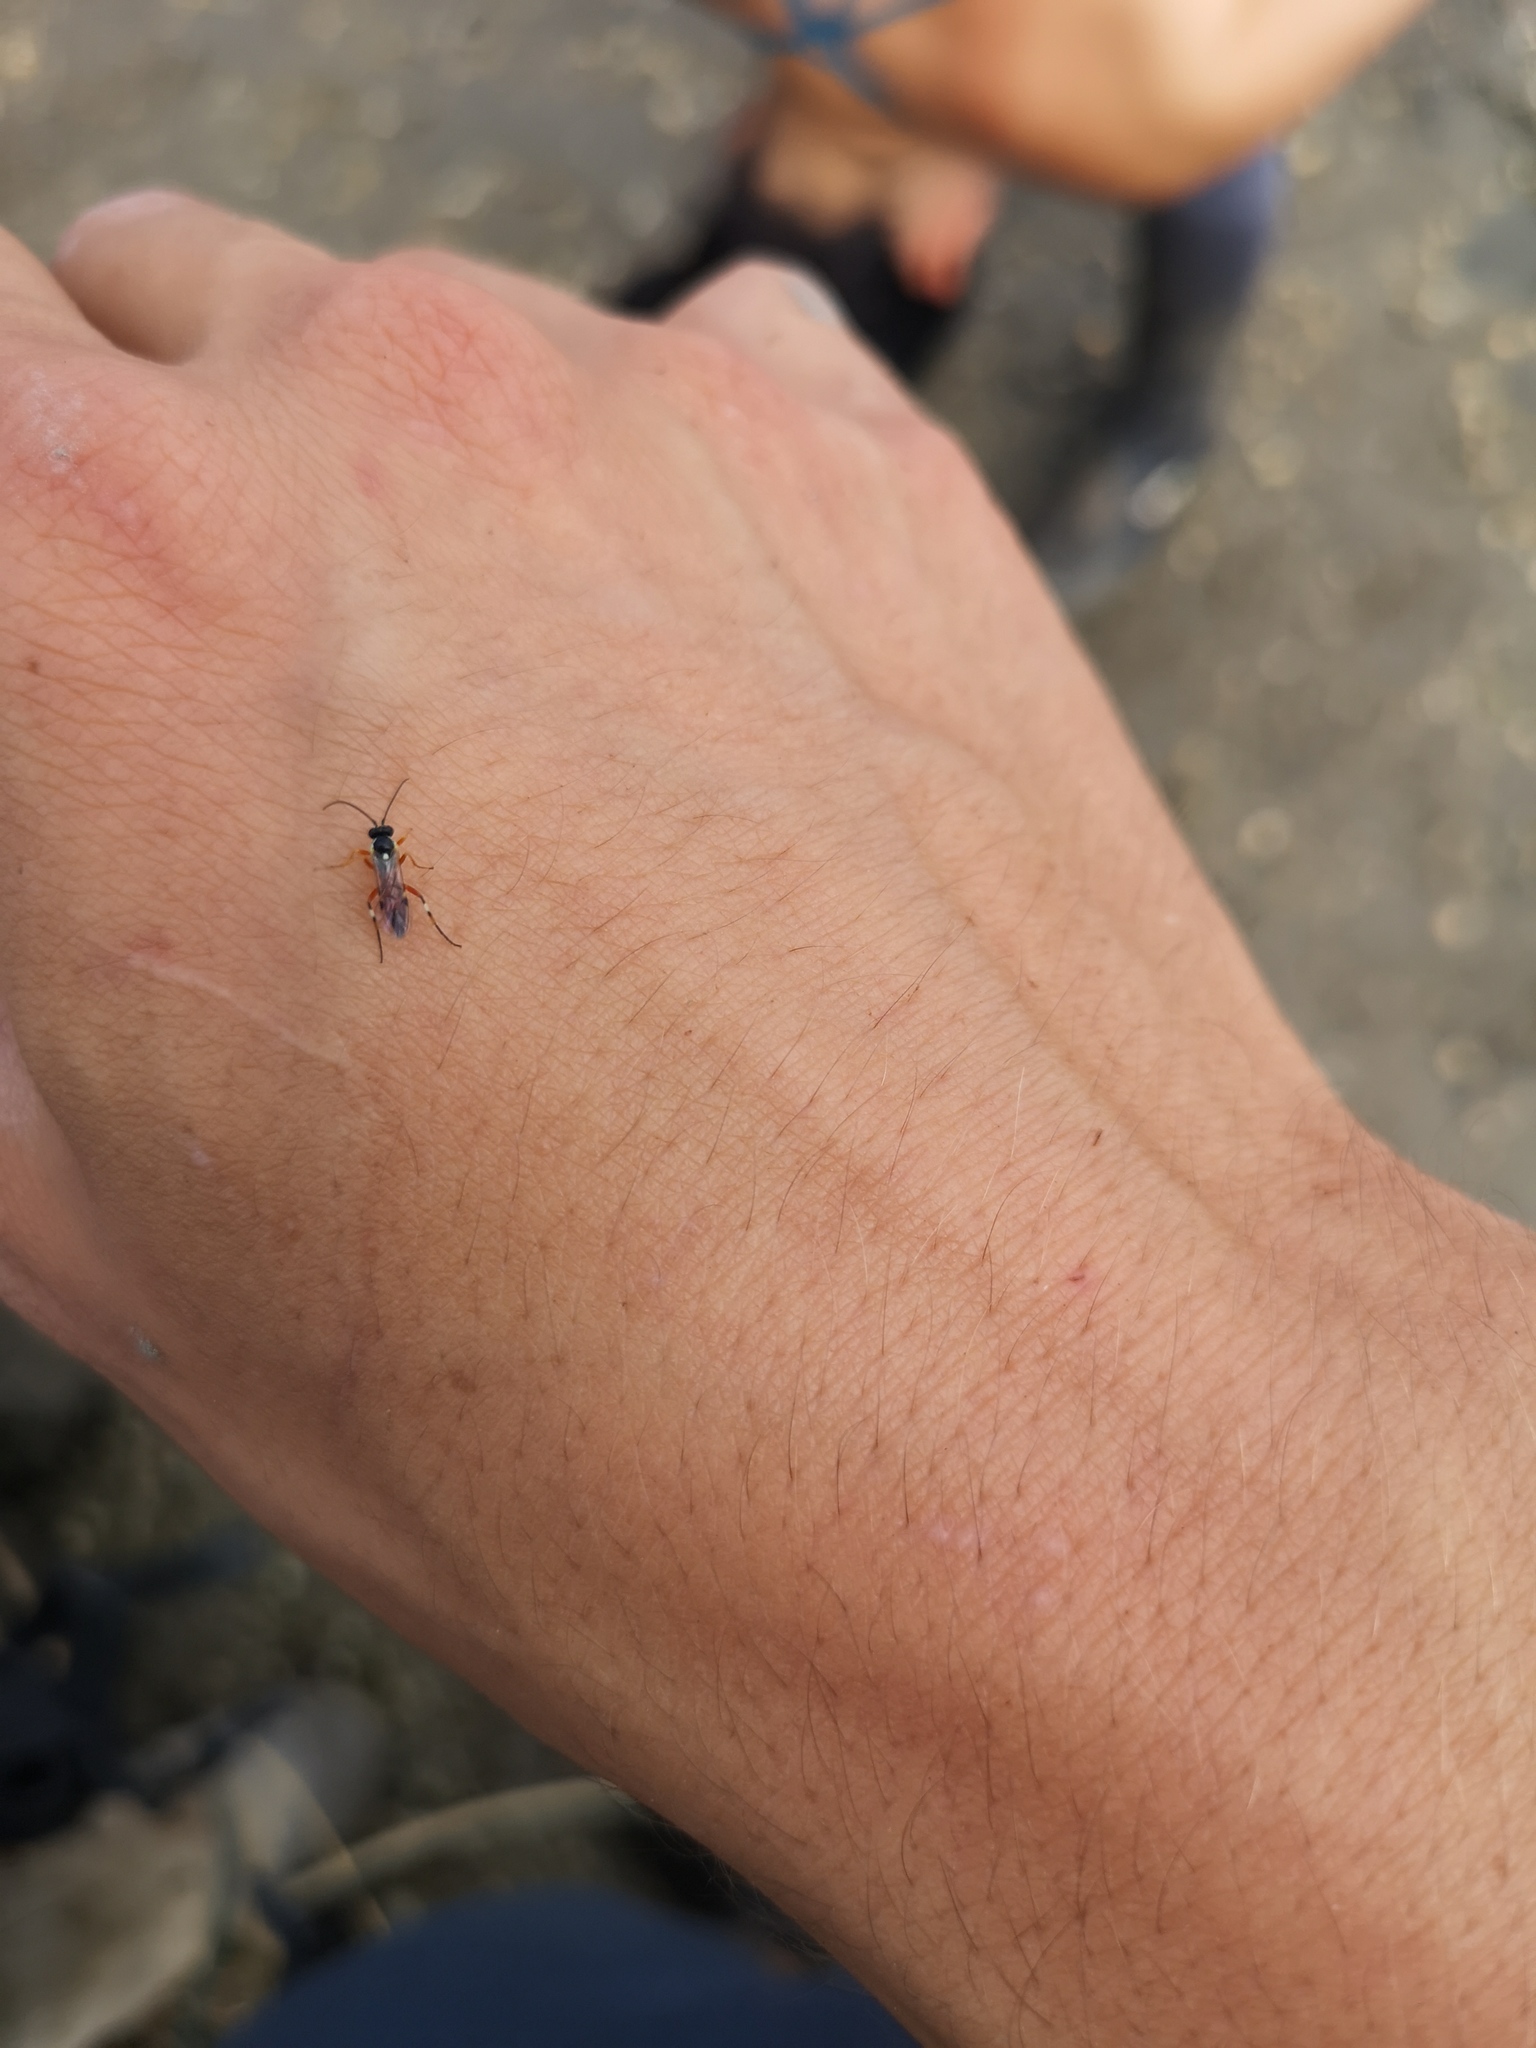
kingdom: Animalia
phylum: Arthropoda
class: Insecta
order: Hymenoptera
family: Ichneumonidae
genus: Diplazon
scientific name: Diplazon laetatorius
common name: Parasitoid wasp
